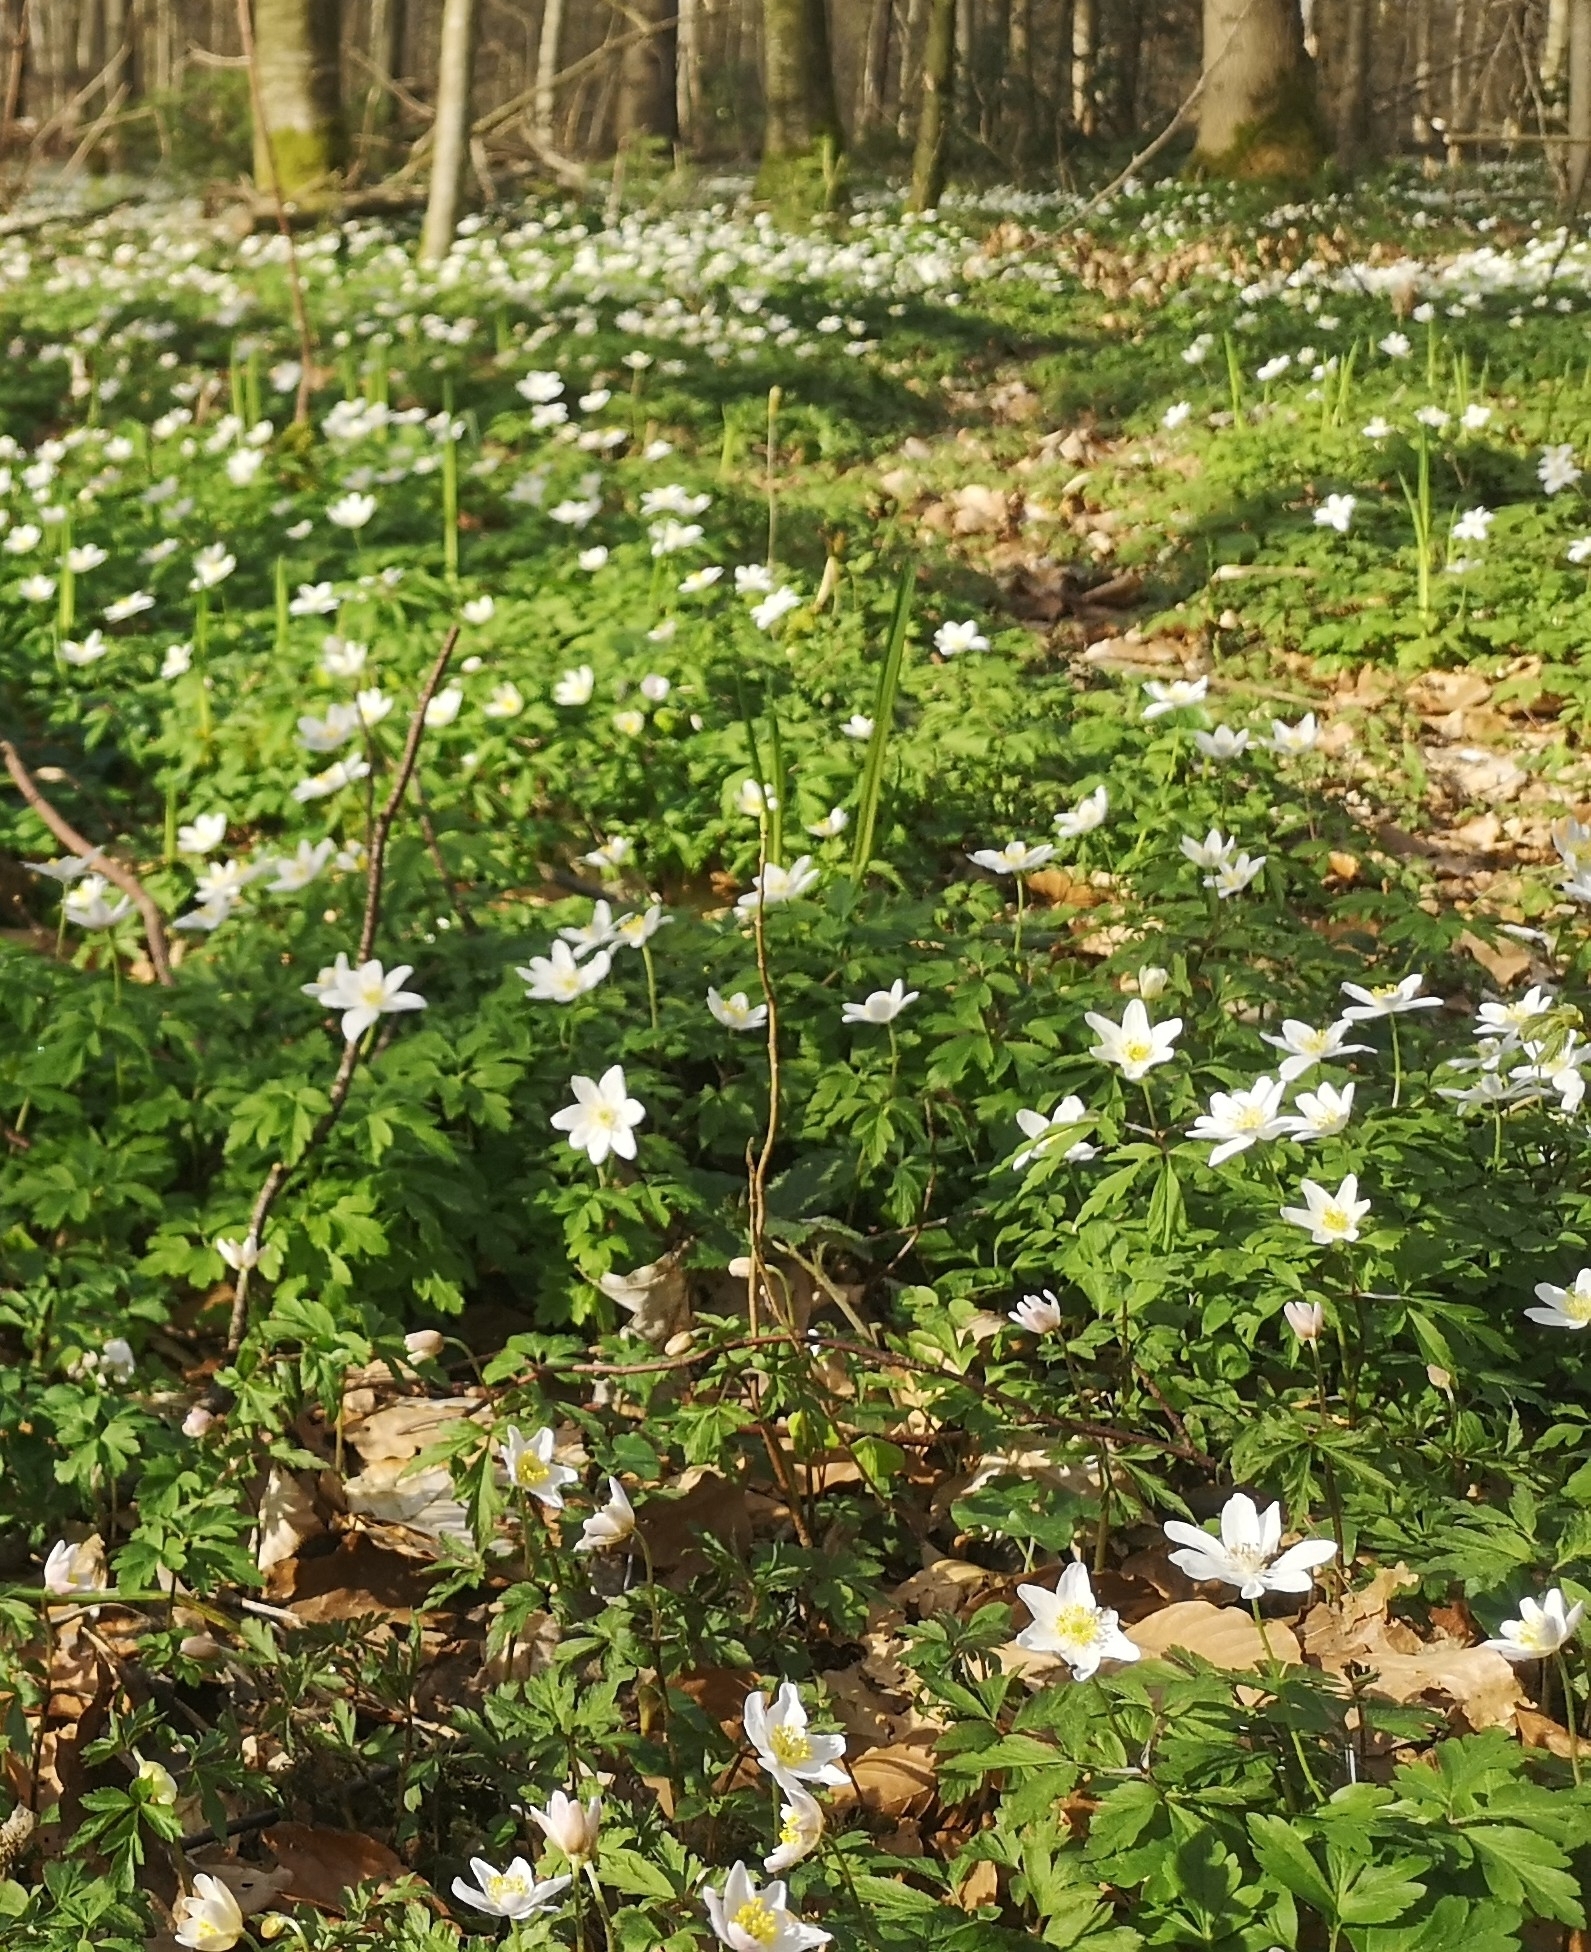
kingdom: Plantae
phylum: Tracheophyta
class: Magnoliopsida
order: Ranunculales
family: Ranunculaceae
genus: Anemone
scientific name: Anemone nemorosa
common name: Wood anemone
